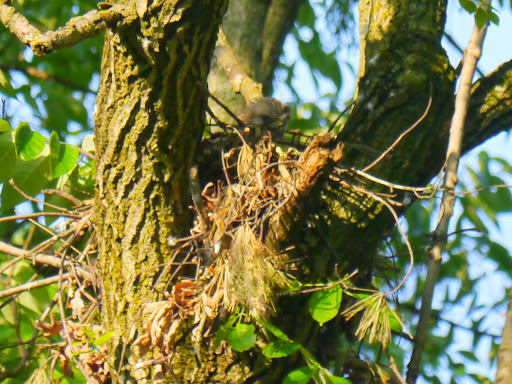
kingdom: Animalia
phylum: Chordata
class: Aves
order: Accipitriformes
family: Accipitridae
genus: Buteo
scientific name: Buteo lineatus
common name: Red-shouldered hawk
